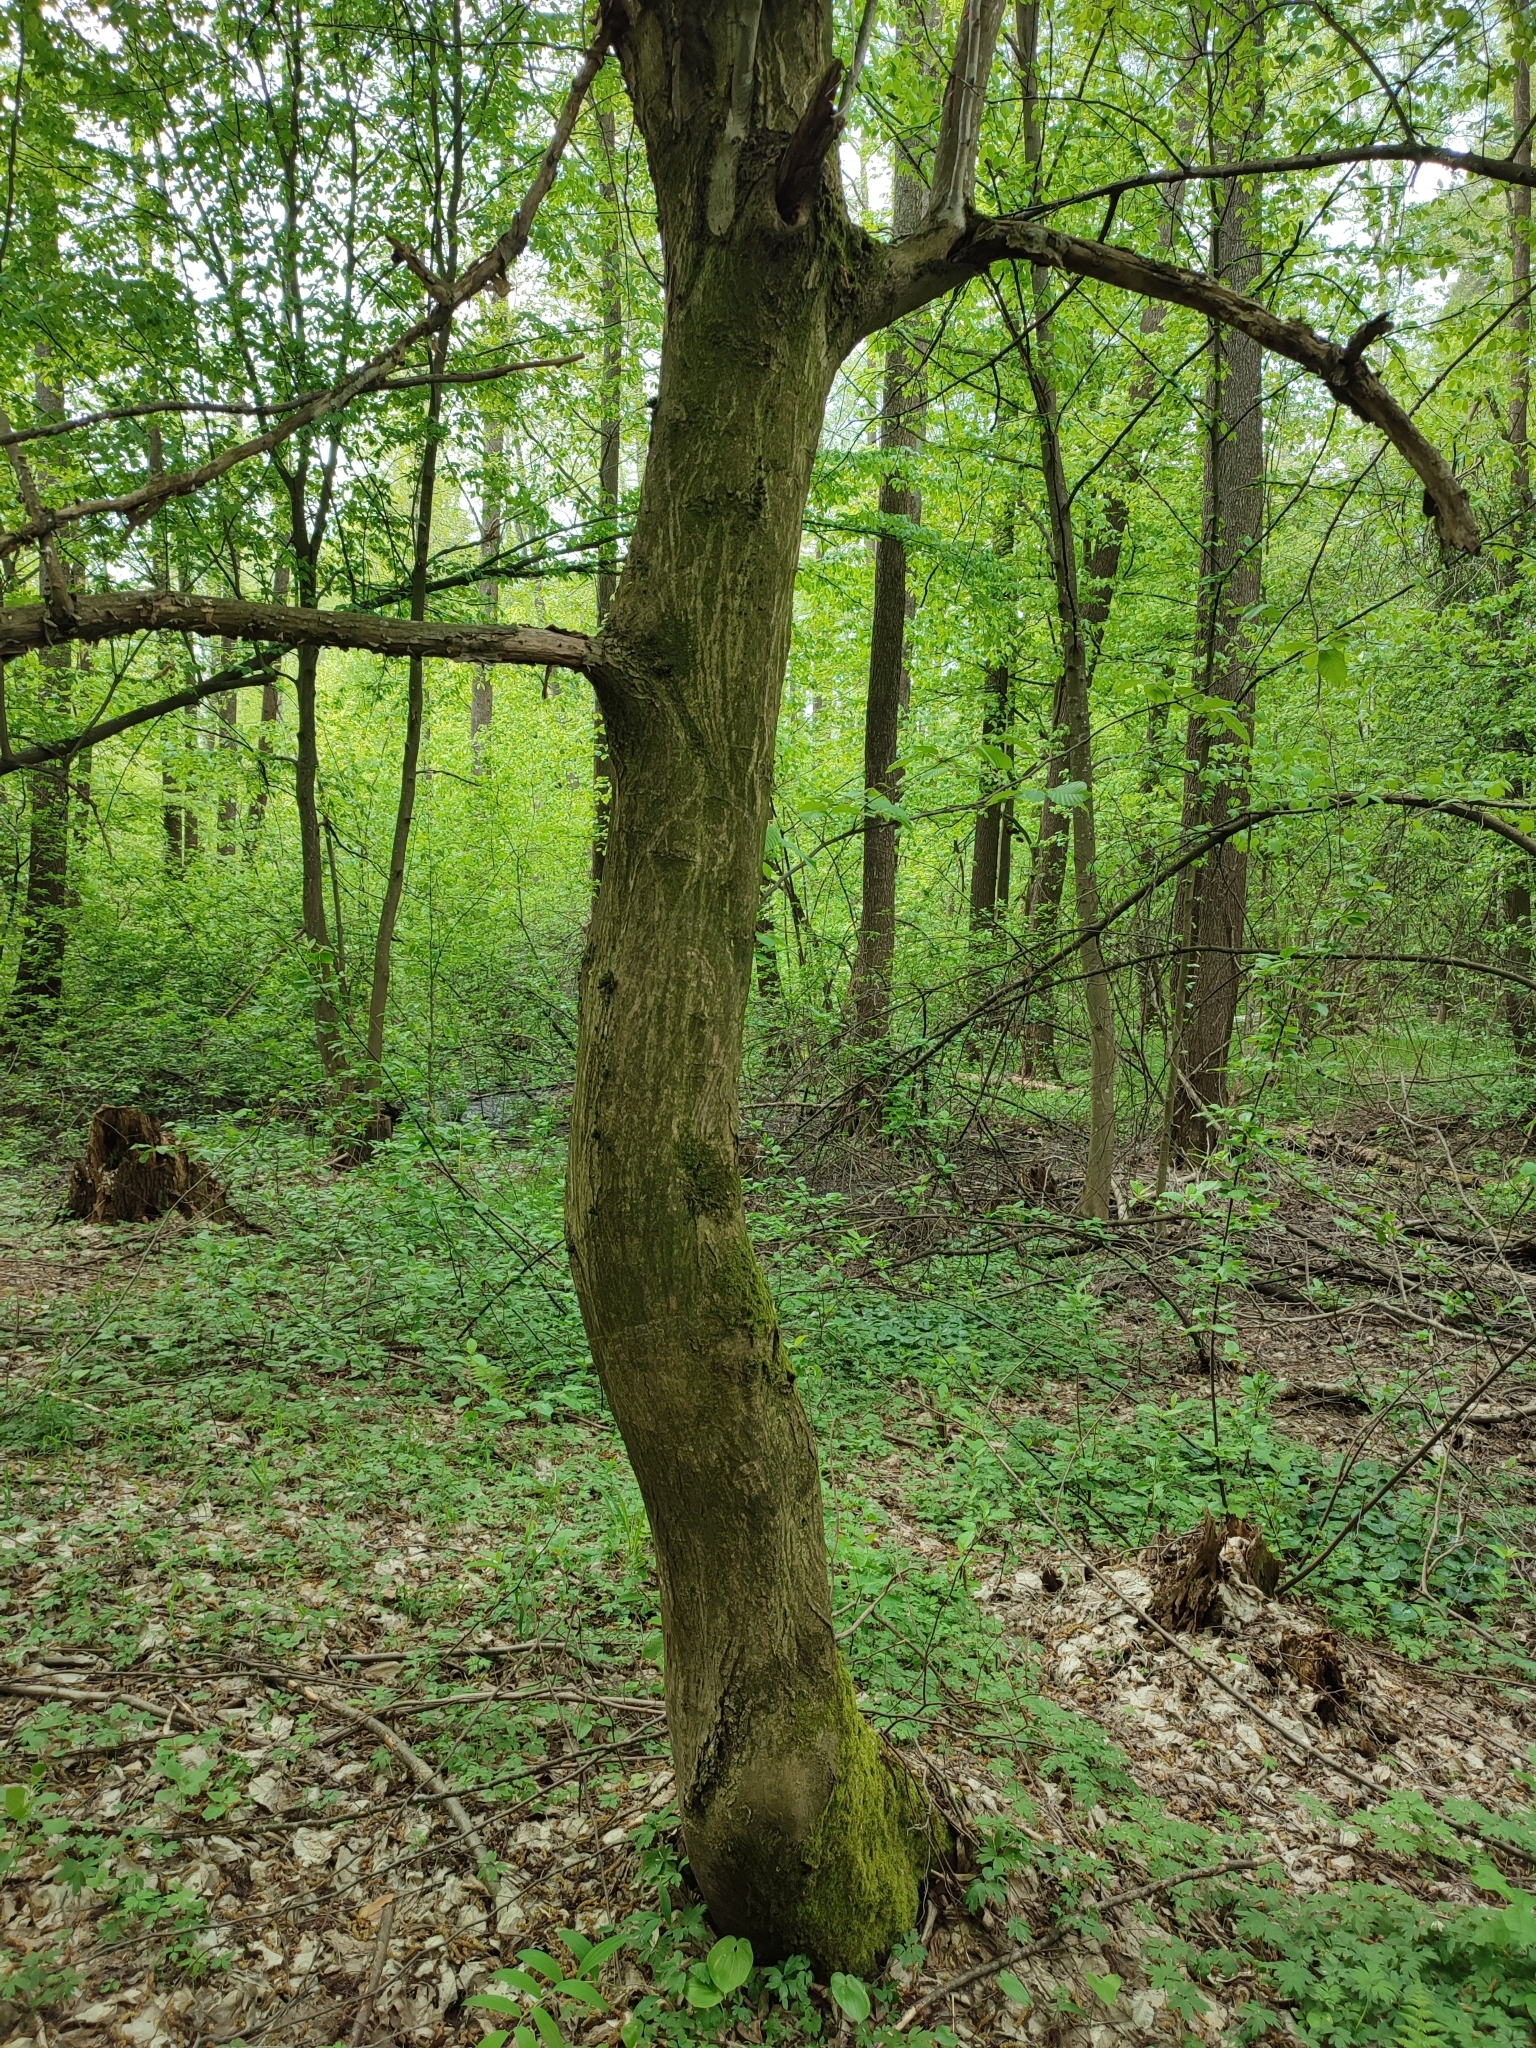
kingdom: Plantae
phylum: Tracheophyta
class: Magnoliopsida
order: Fagales
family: Betulaceae
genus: Carpinus
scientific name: Carpinus betulus
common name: Hornbeam
